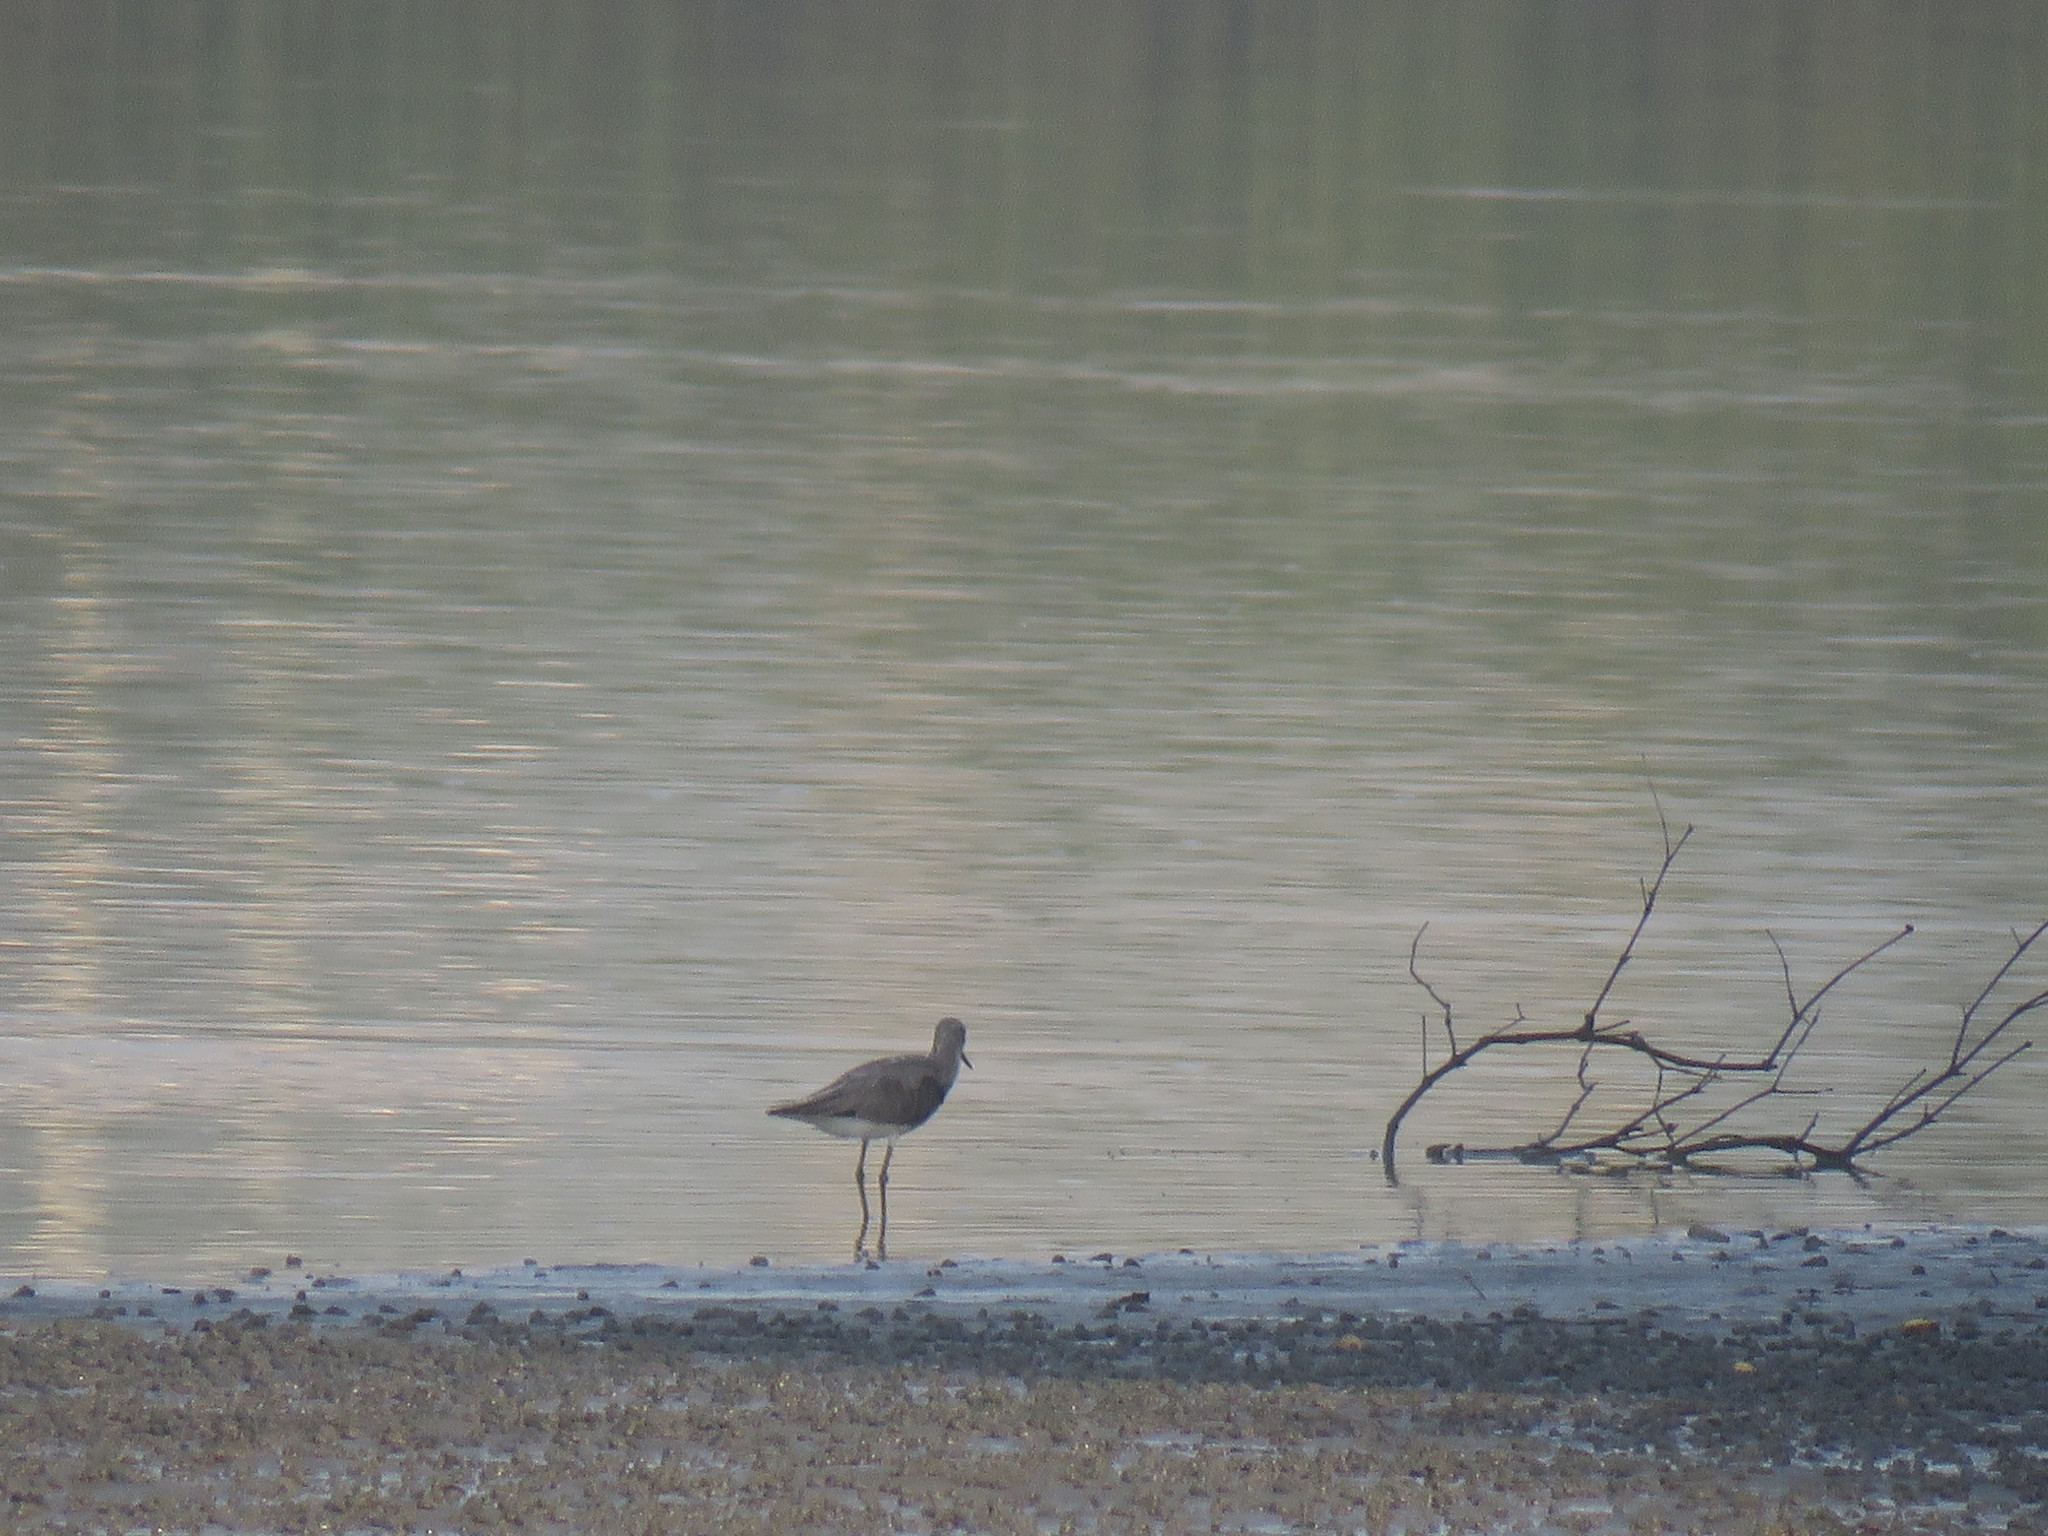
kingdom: Animalia
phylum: Chordata
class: Aves
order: Charadriiformes
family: Scolopacidae
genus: Tringa
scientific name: Tringa nebularia
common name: Common greenshank
